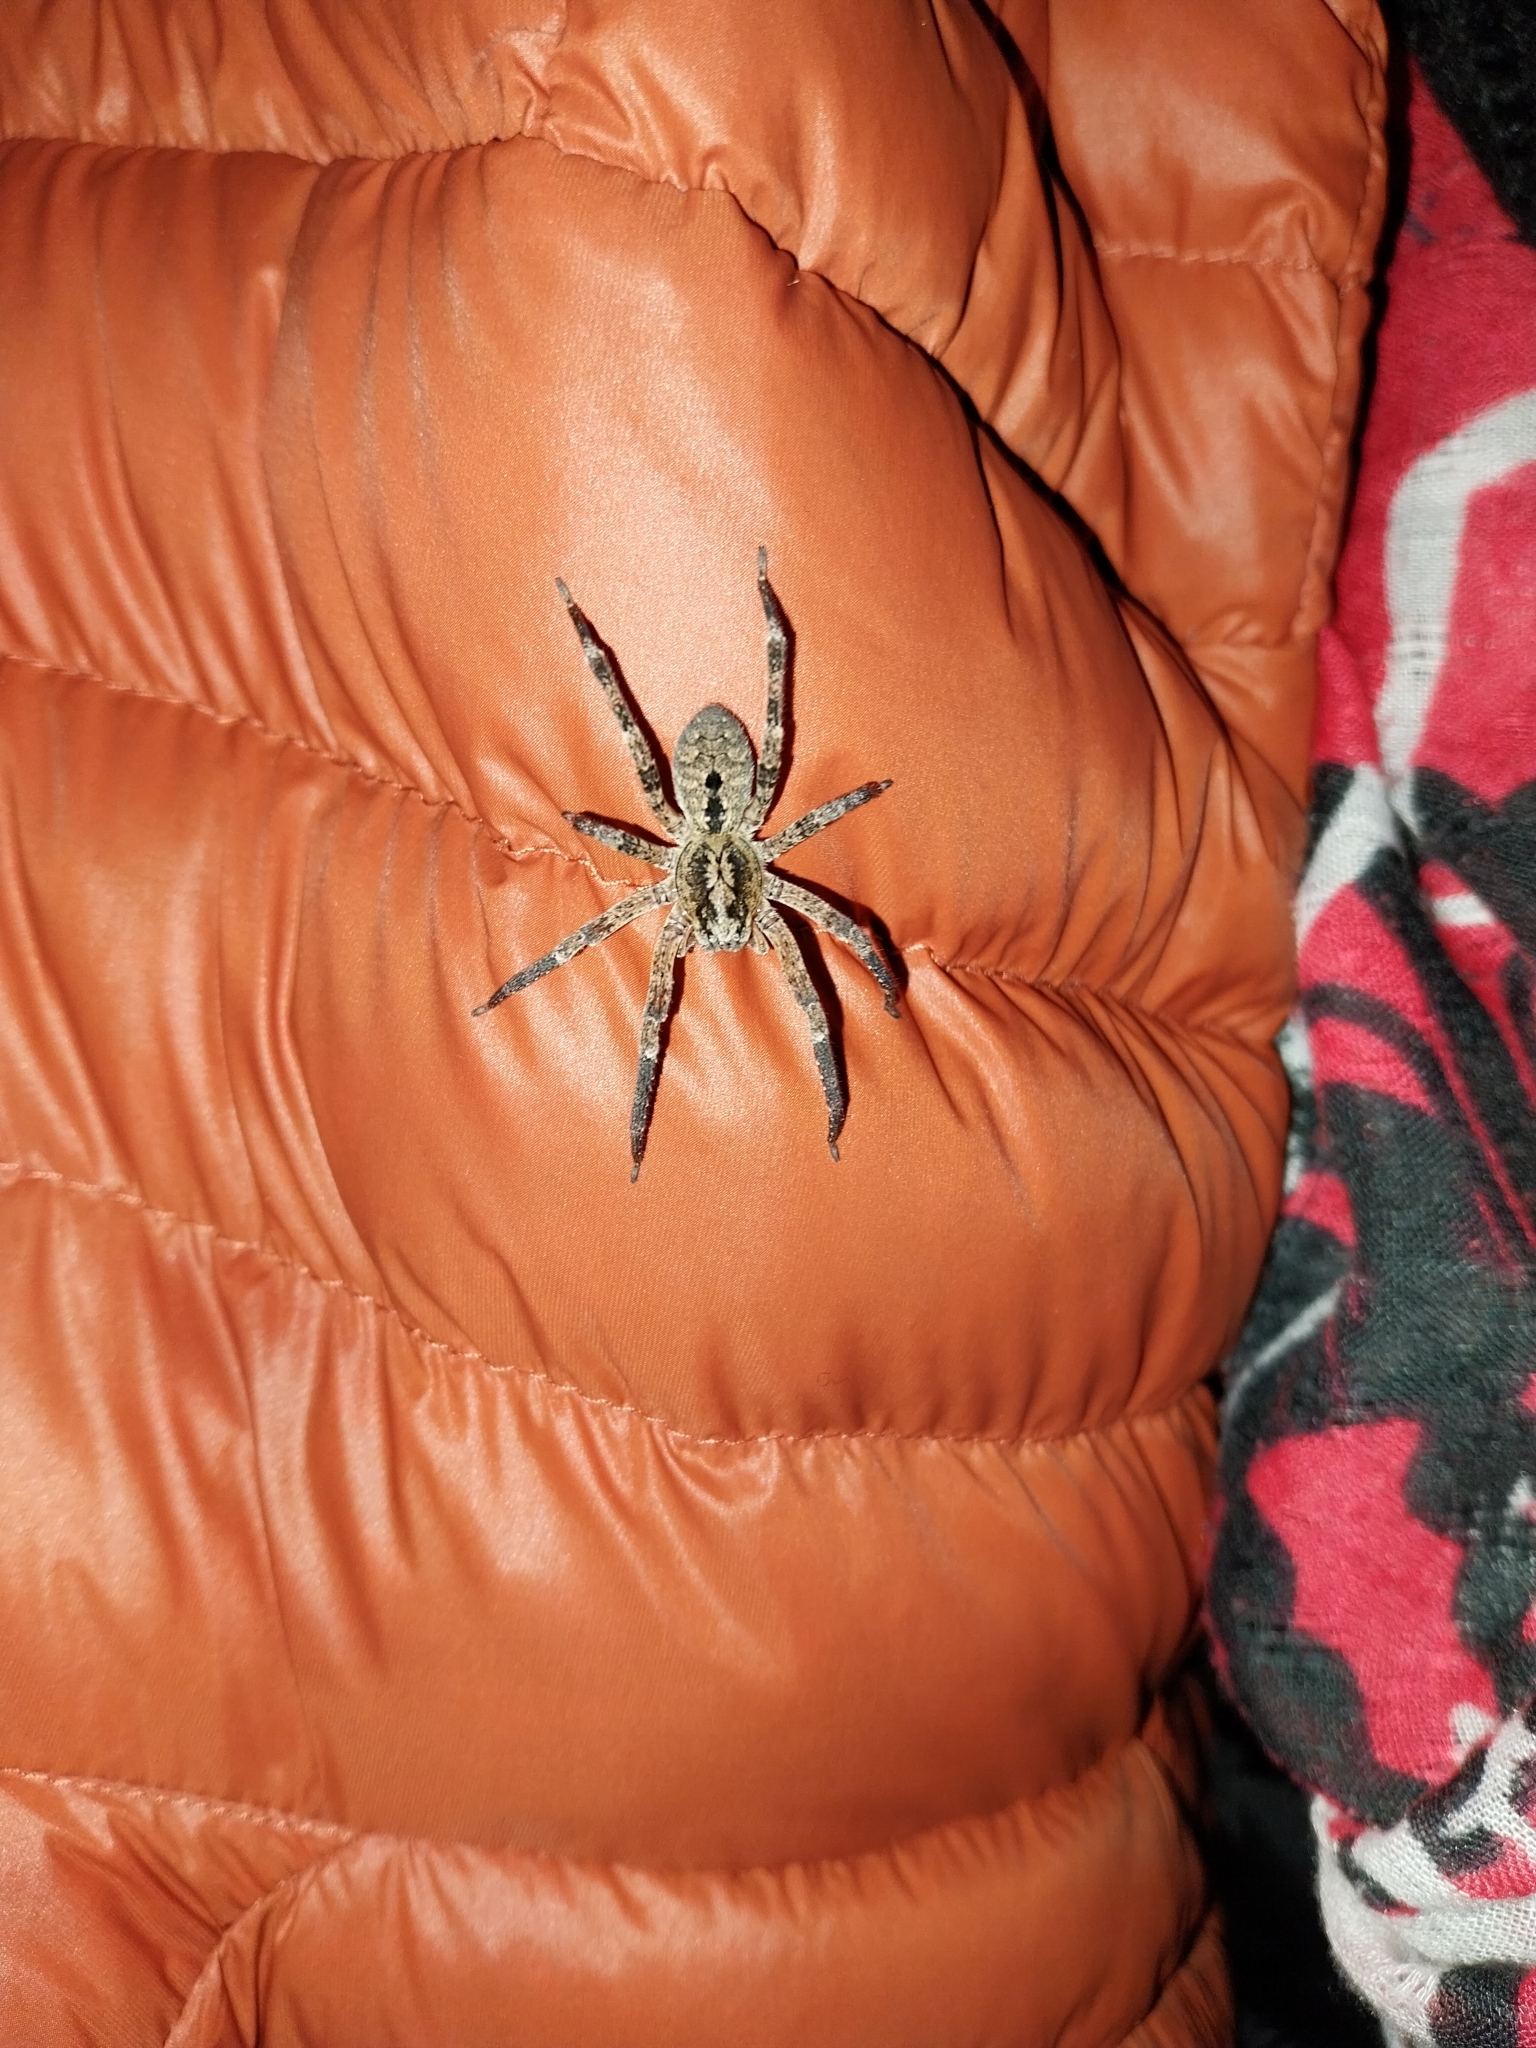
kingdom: Animalia
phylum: Arthropoda
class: Arachnida
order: Araneae
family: Zoropsidae
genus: Zoropsis
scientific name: Zoropsis spinimana
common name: Zoropsid spider
